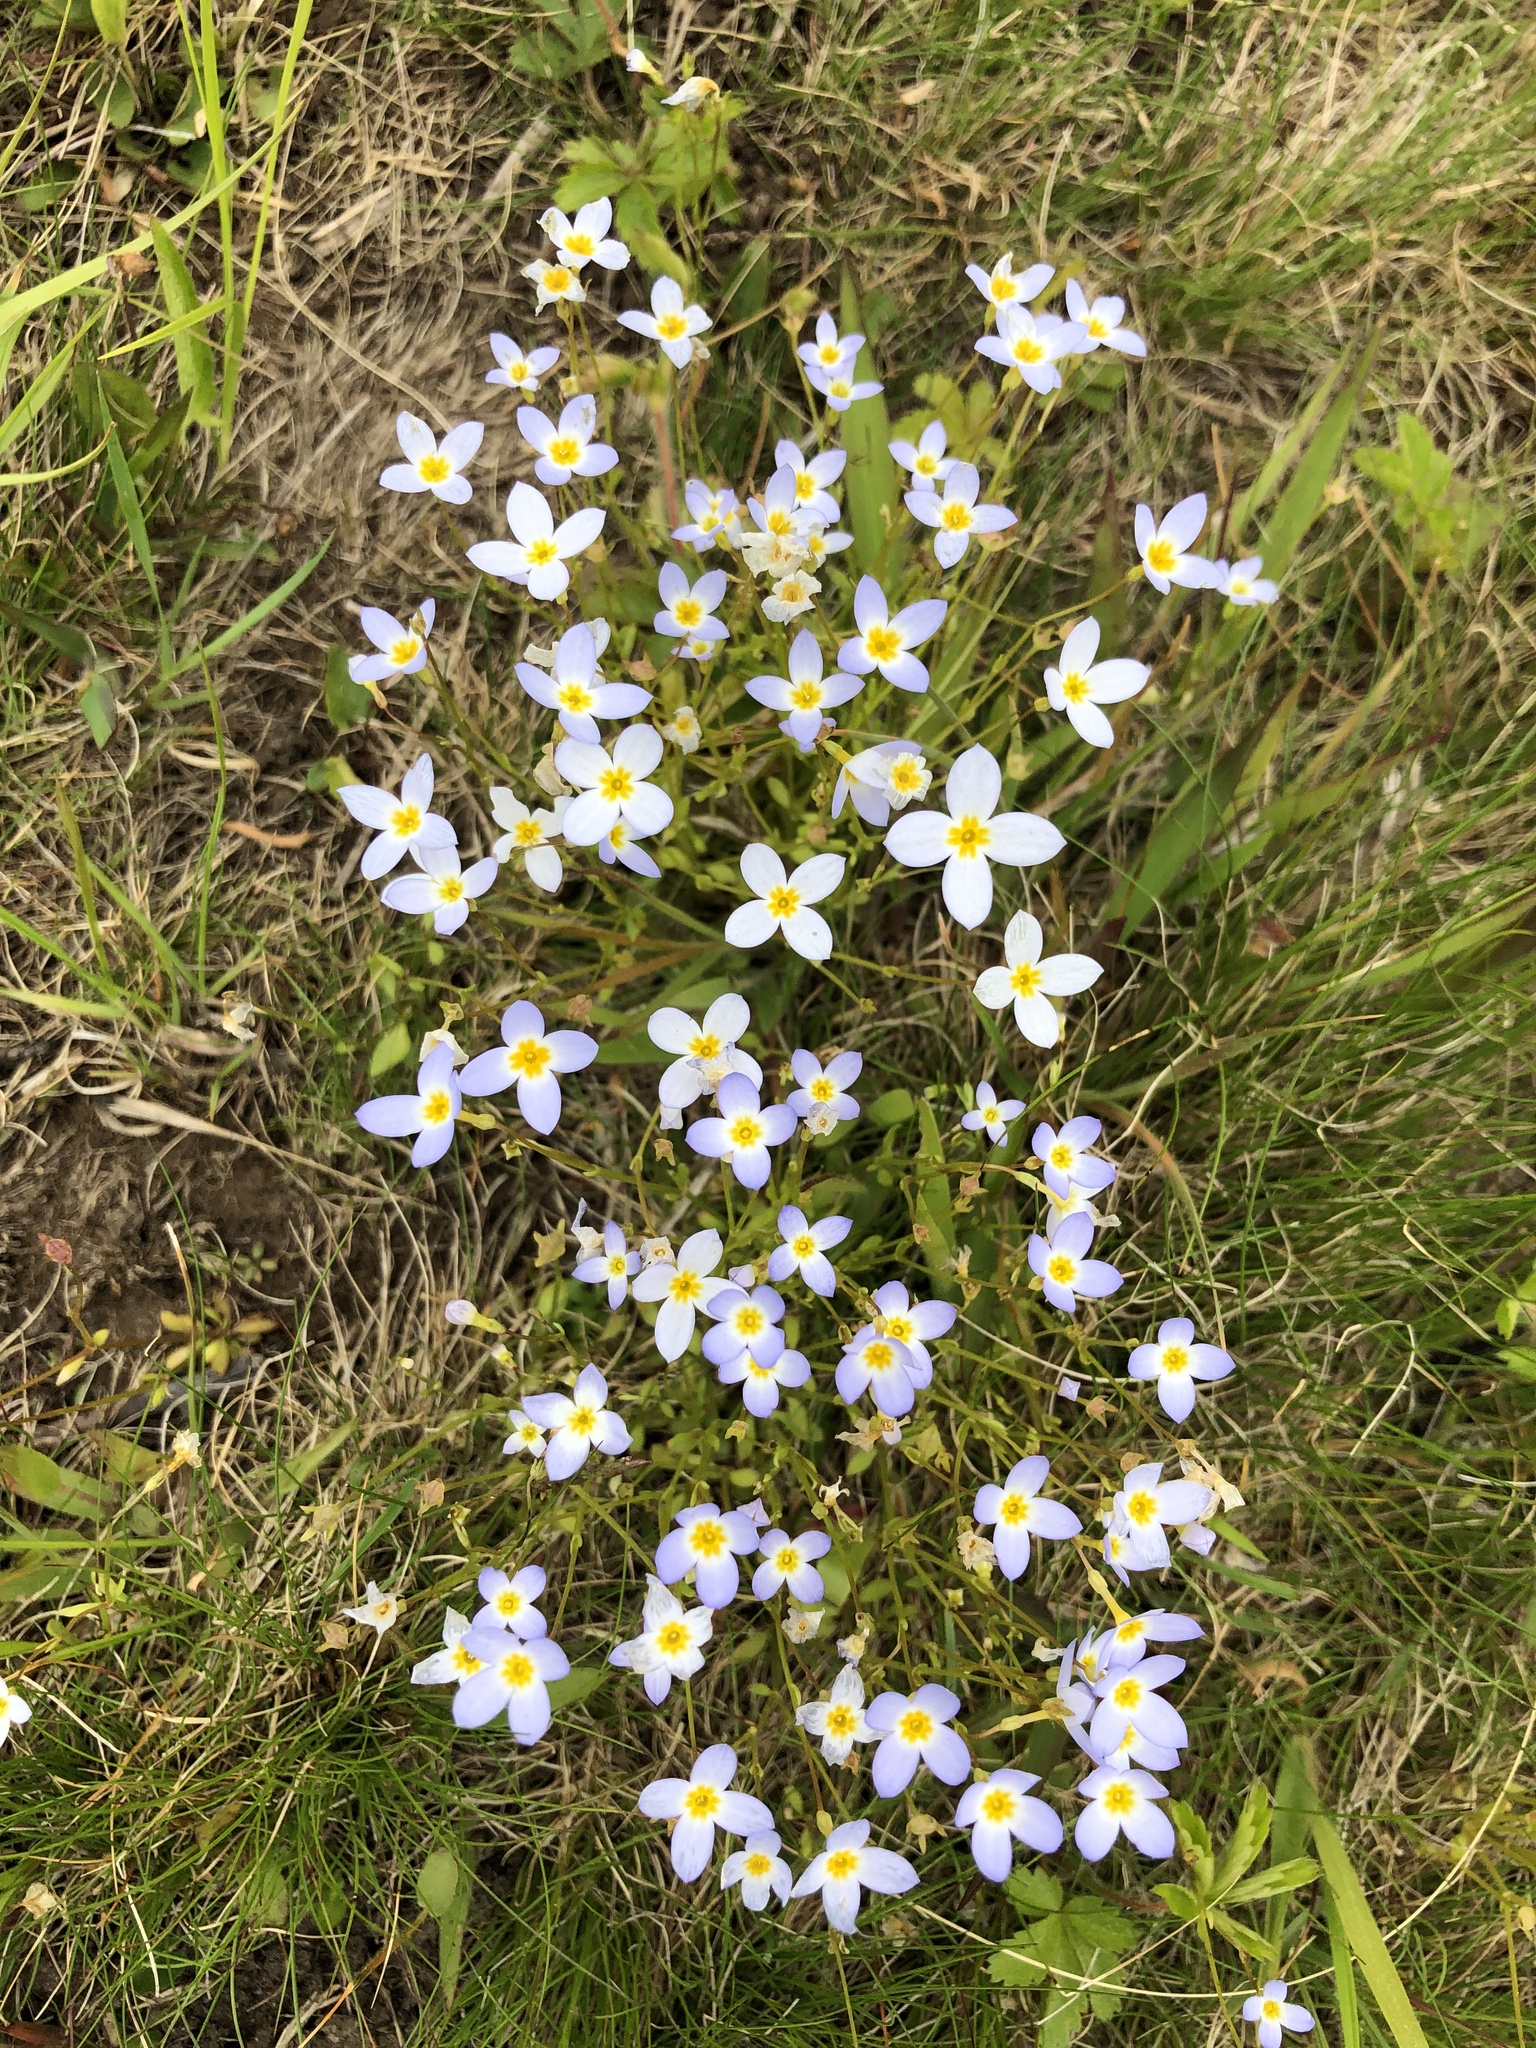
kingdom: Plantae
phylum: Tracheophyta
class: Magnoliopsida
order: Gentianales
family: Rubiaceae
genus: Houstonia
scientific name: Houstonia caerulea
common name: Bluets
